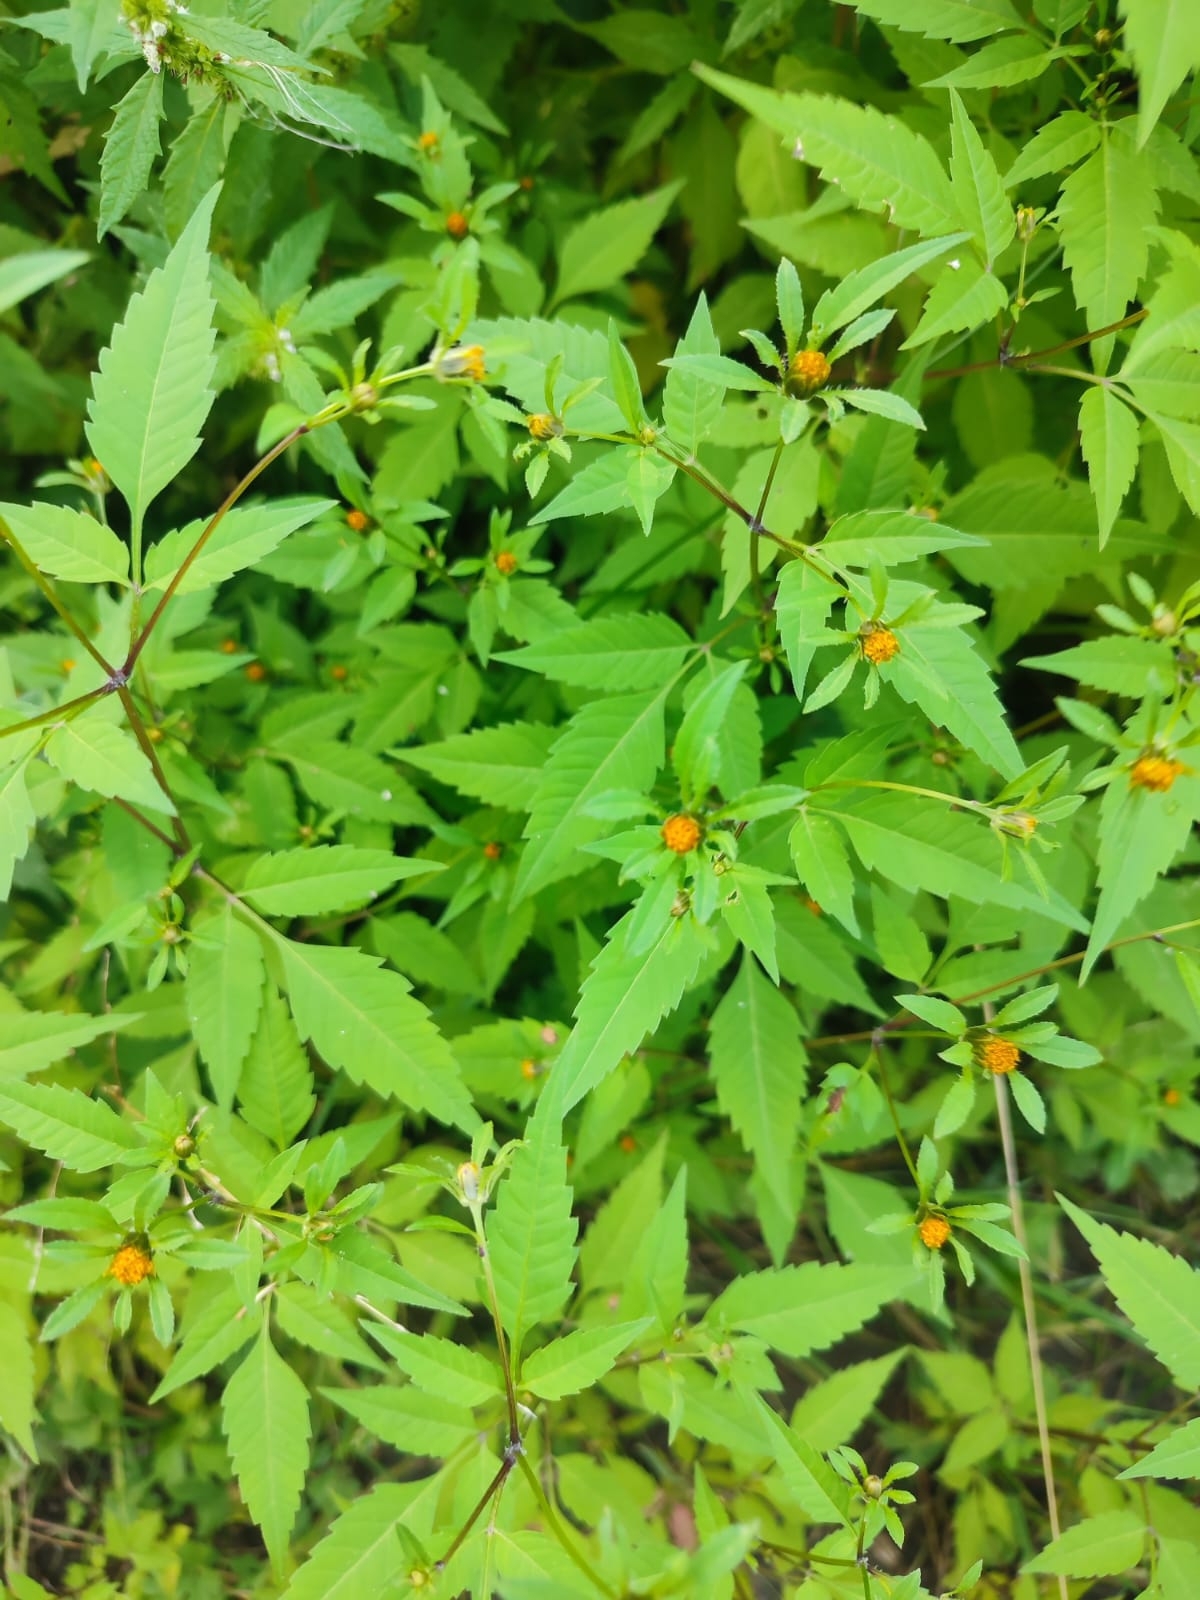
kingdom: Plantae
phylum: Tracheophyta
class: Magnoliopsida
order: Asterales
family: Asteraceae
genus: Bidens
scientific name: Bidens frondosa
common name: Beggarticks
